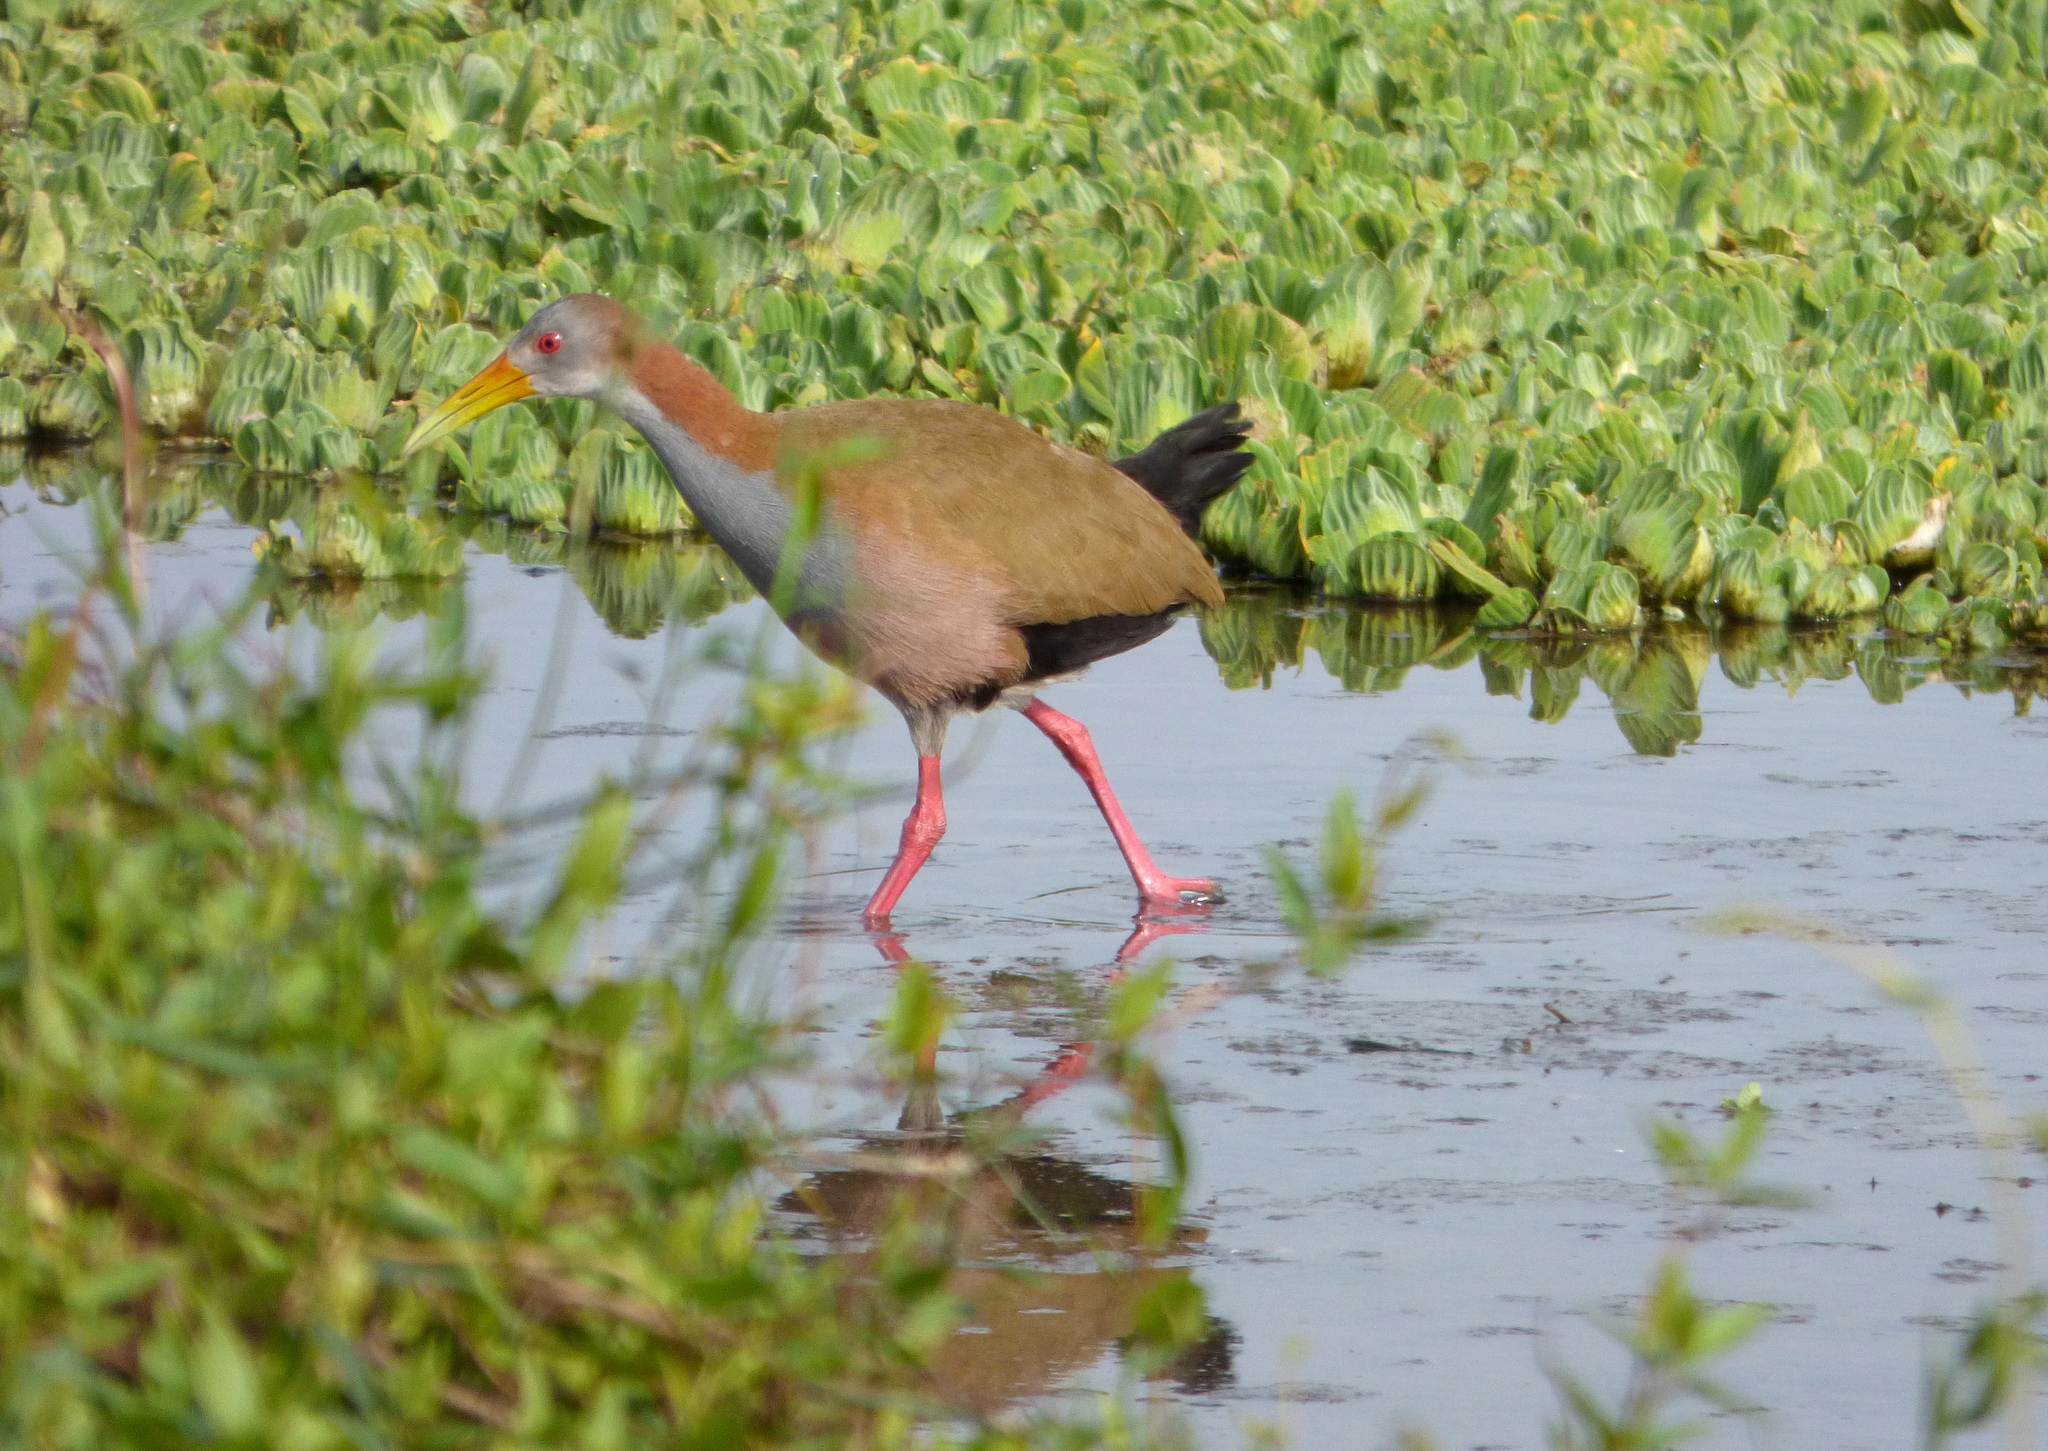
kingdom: Animalia
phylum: Chordata
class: Aves
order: Gruiformes
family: Rallidae
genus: Aramides
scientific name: Aramides ypecaha
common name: Giant wood rail
